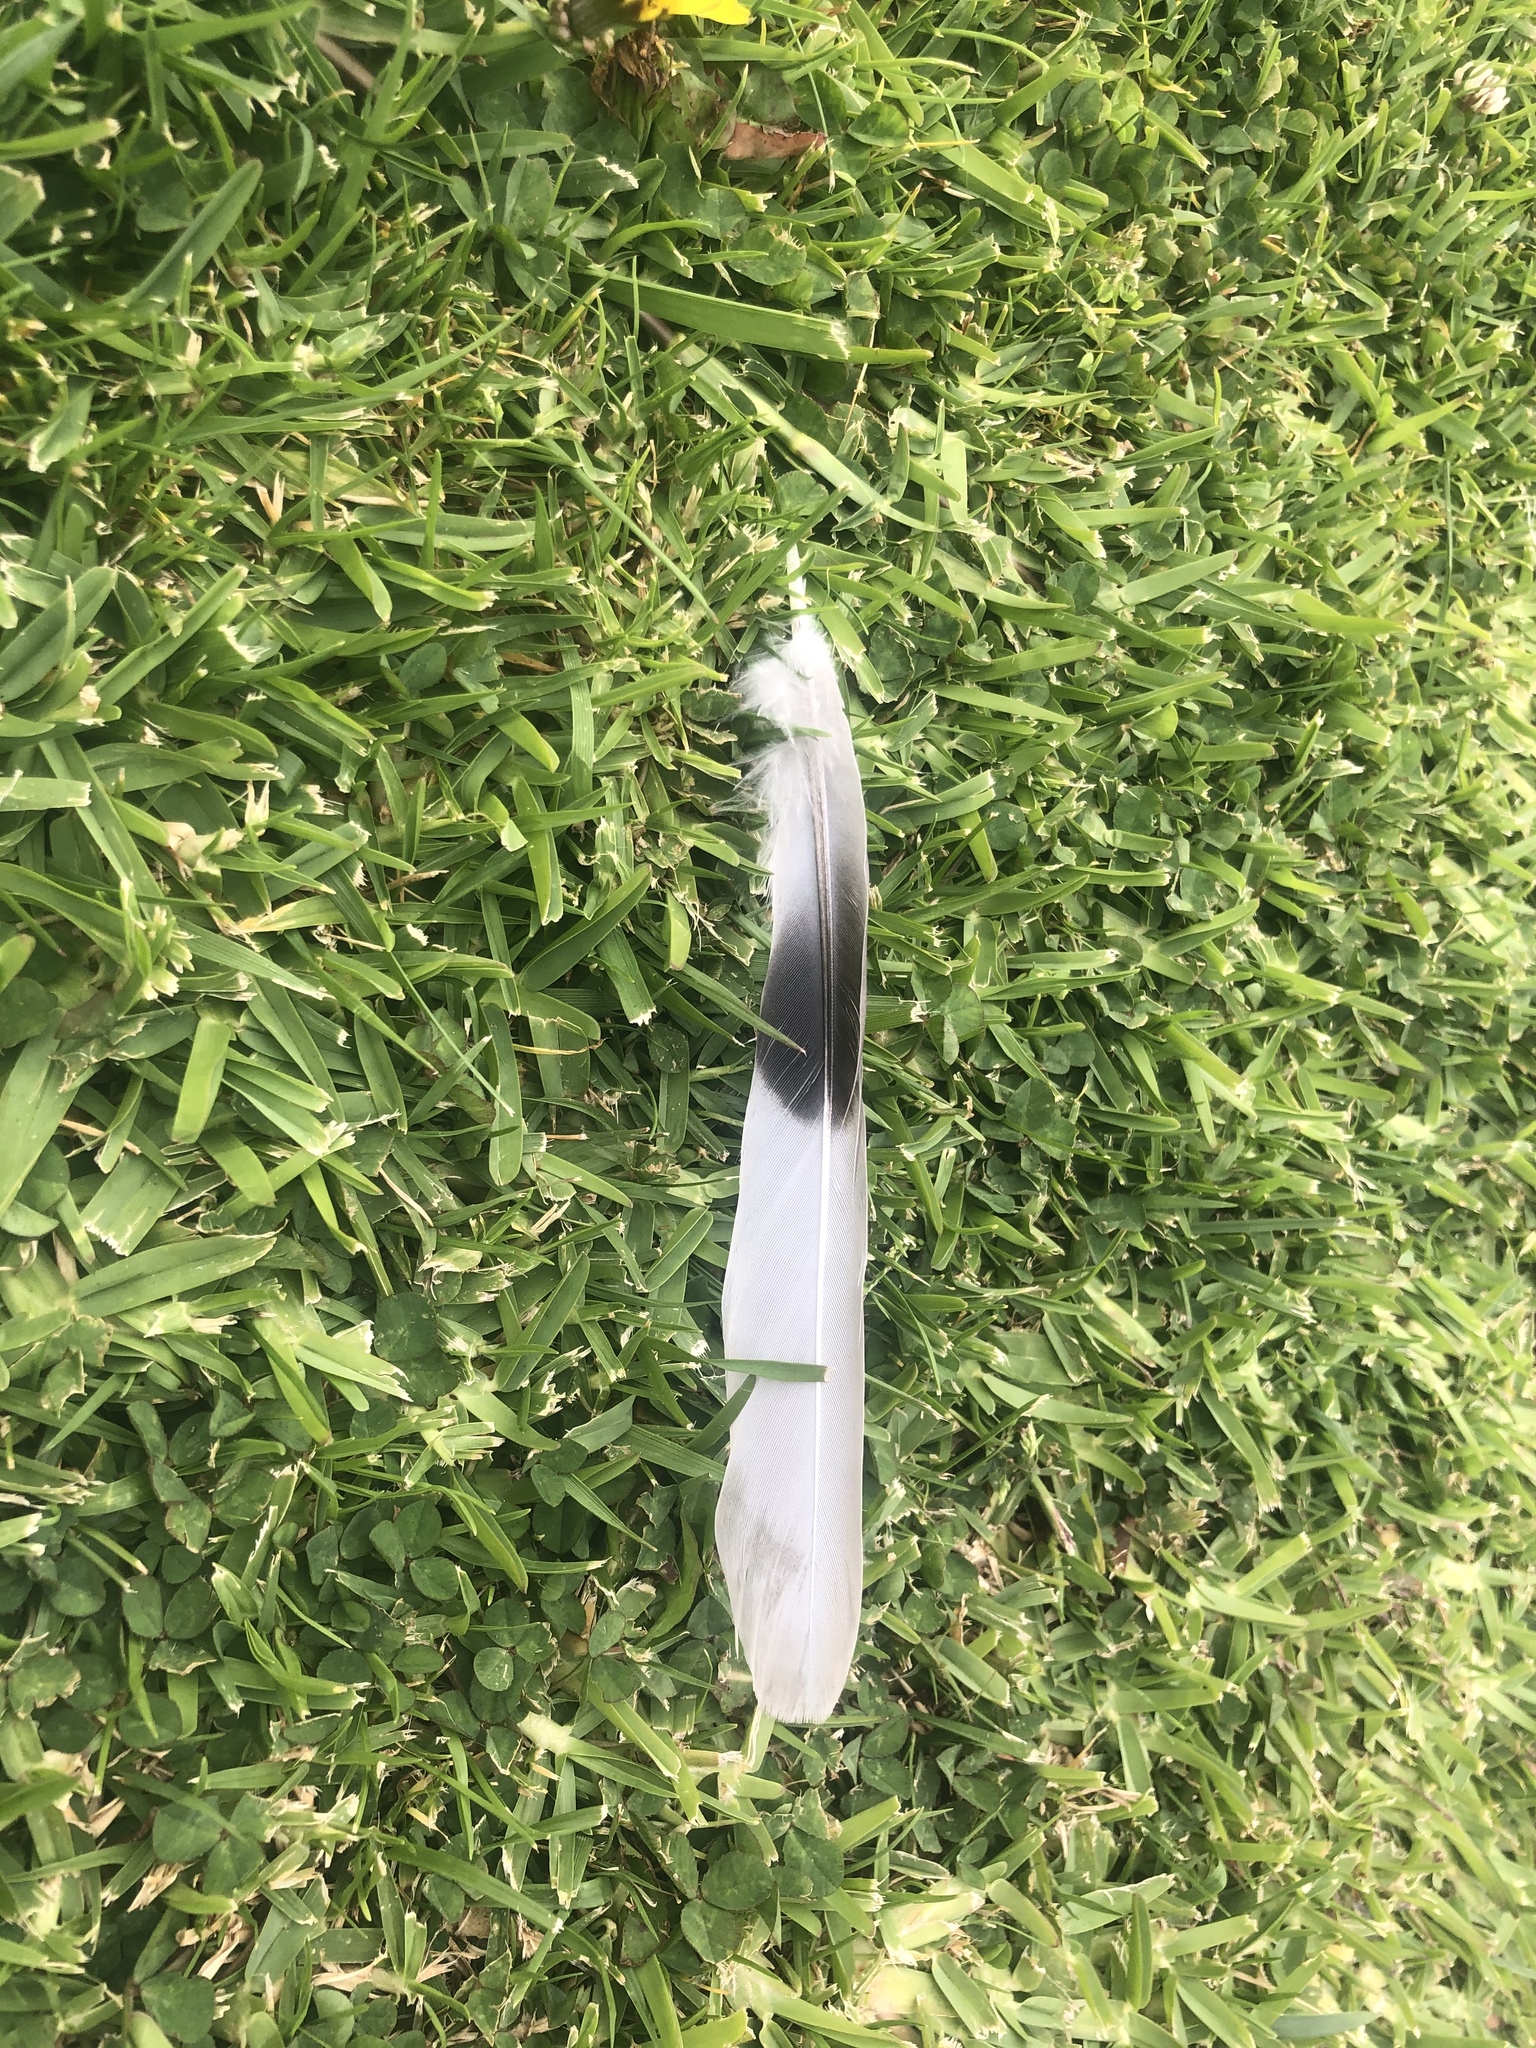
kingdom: Animalia
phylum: Chordata
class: Aves
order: Columbiformes
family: Columbidae
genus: Streptopelia
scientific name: Streptopelia decaocto
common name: Eurasian collared dove
